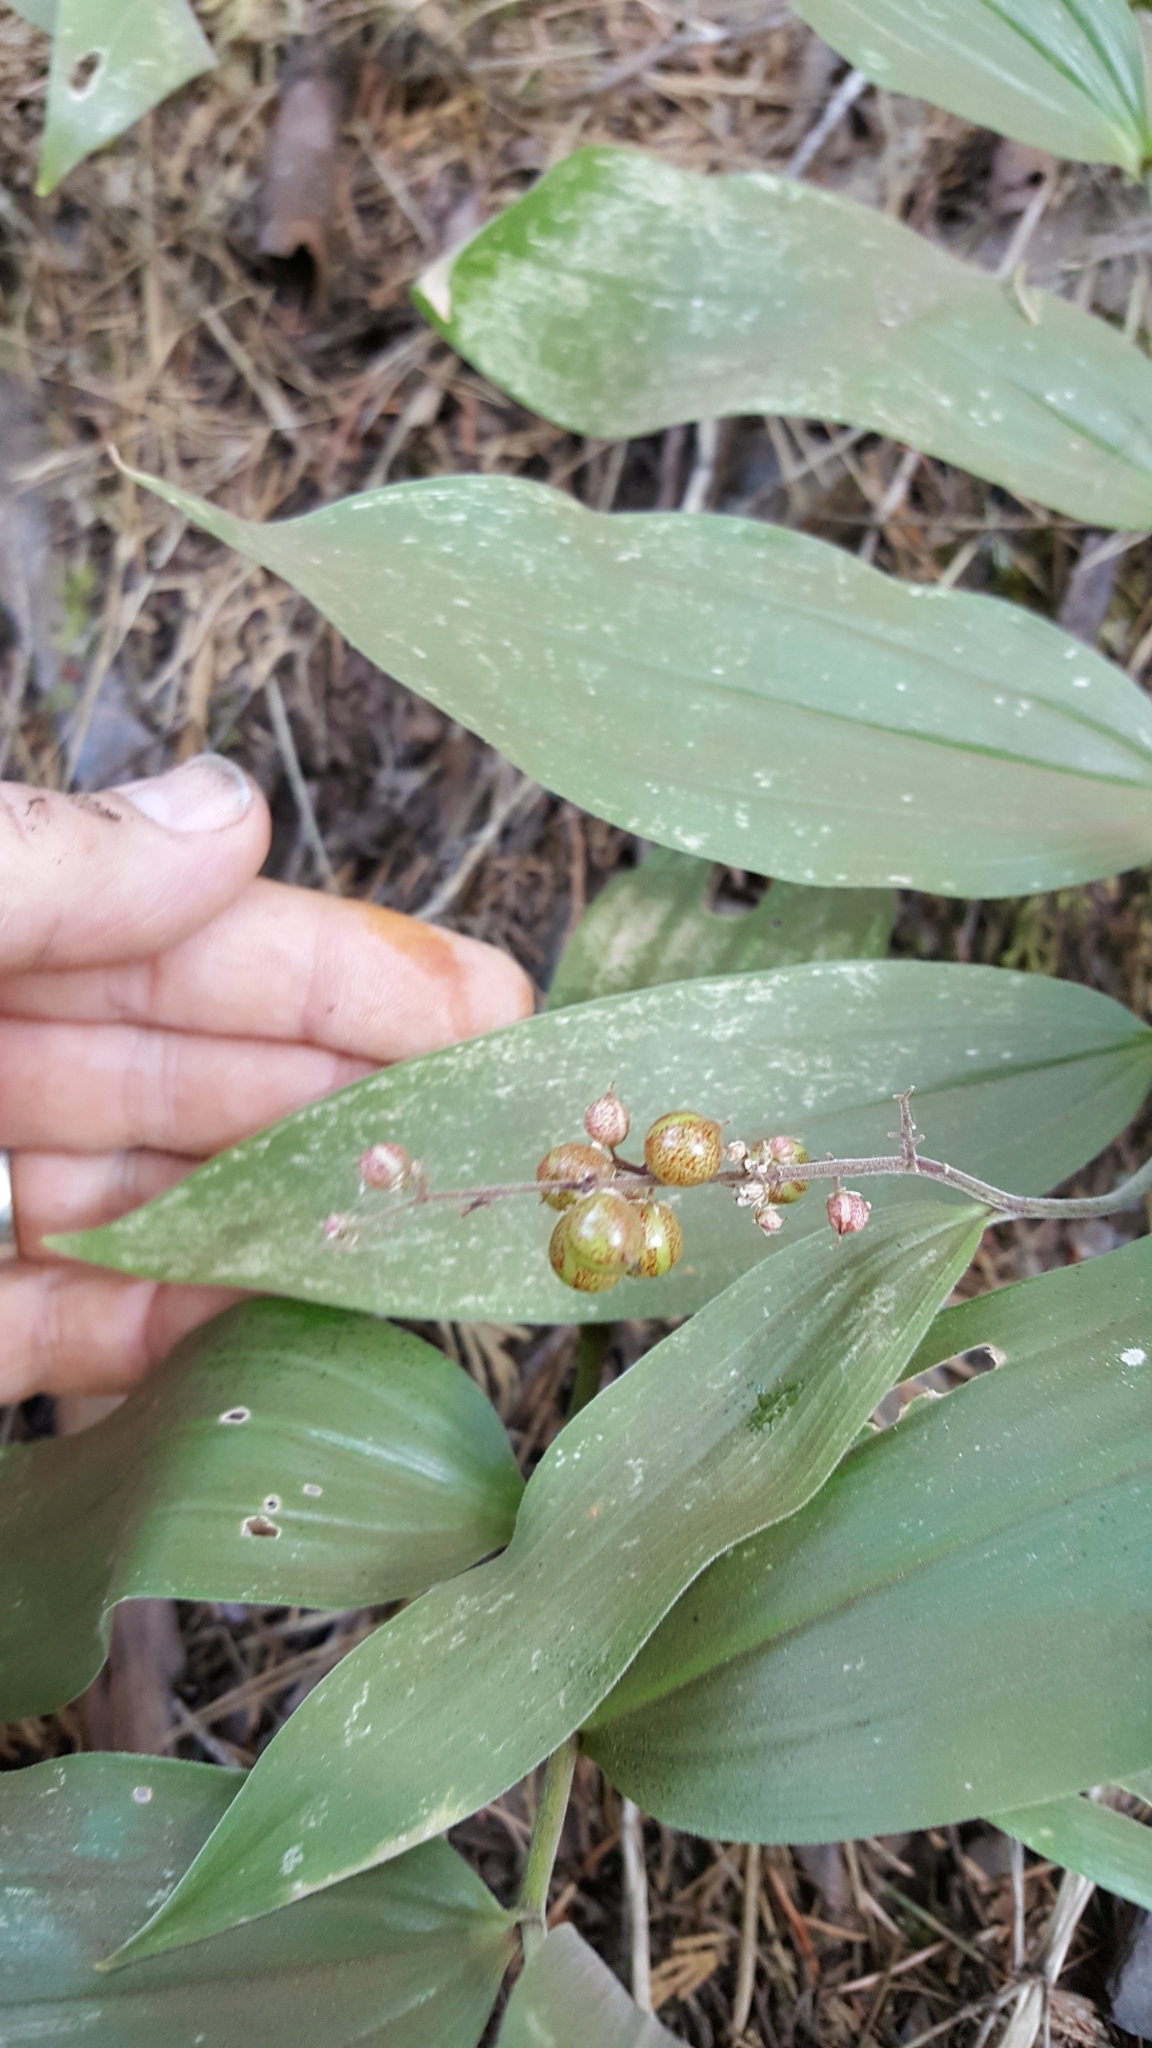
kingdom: Plantae
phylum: Tracheophyta
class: Liliopsida
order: Asparagales
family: Asparagaceae
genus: Maianthemum
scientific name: Maianthemum stellatum
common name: Little false solomon's seal
